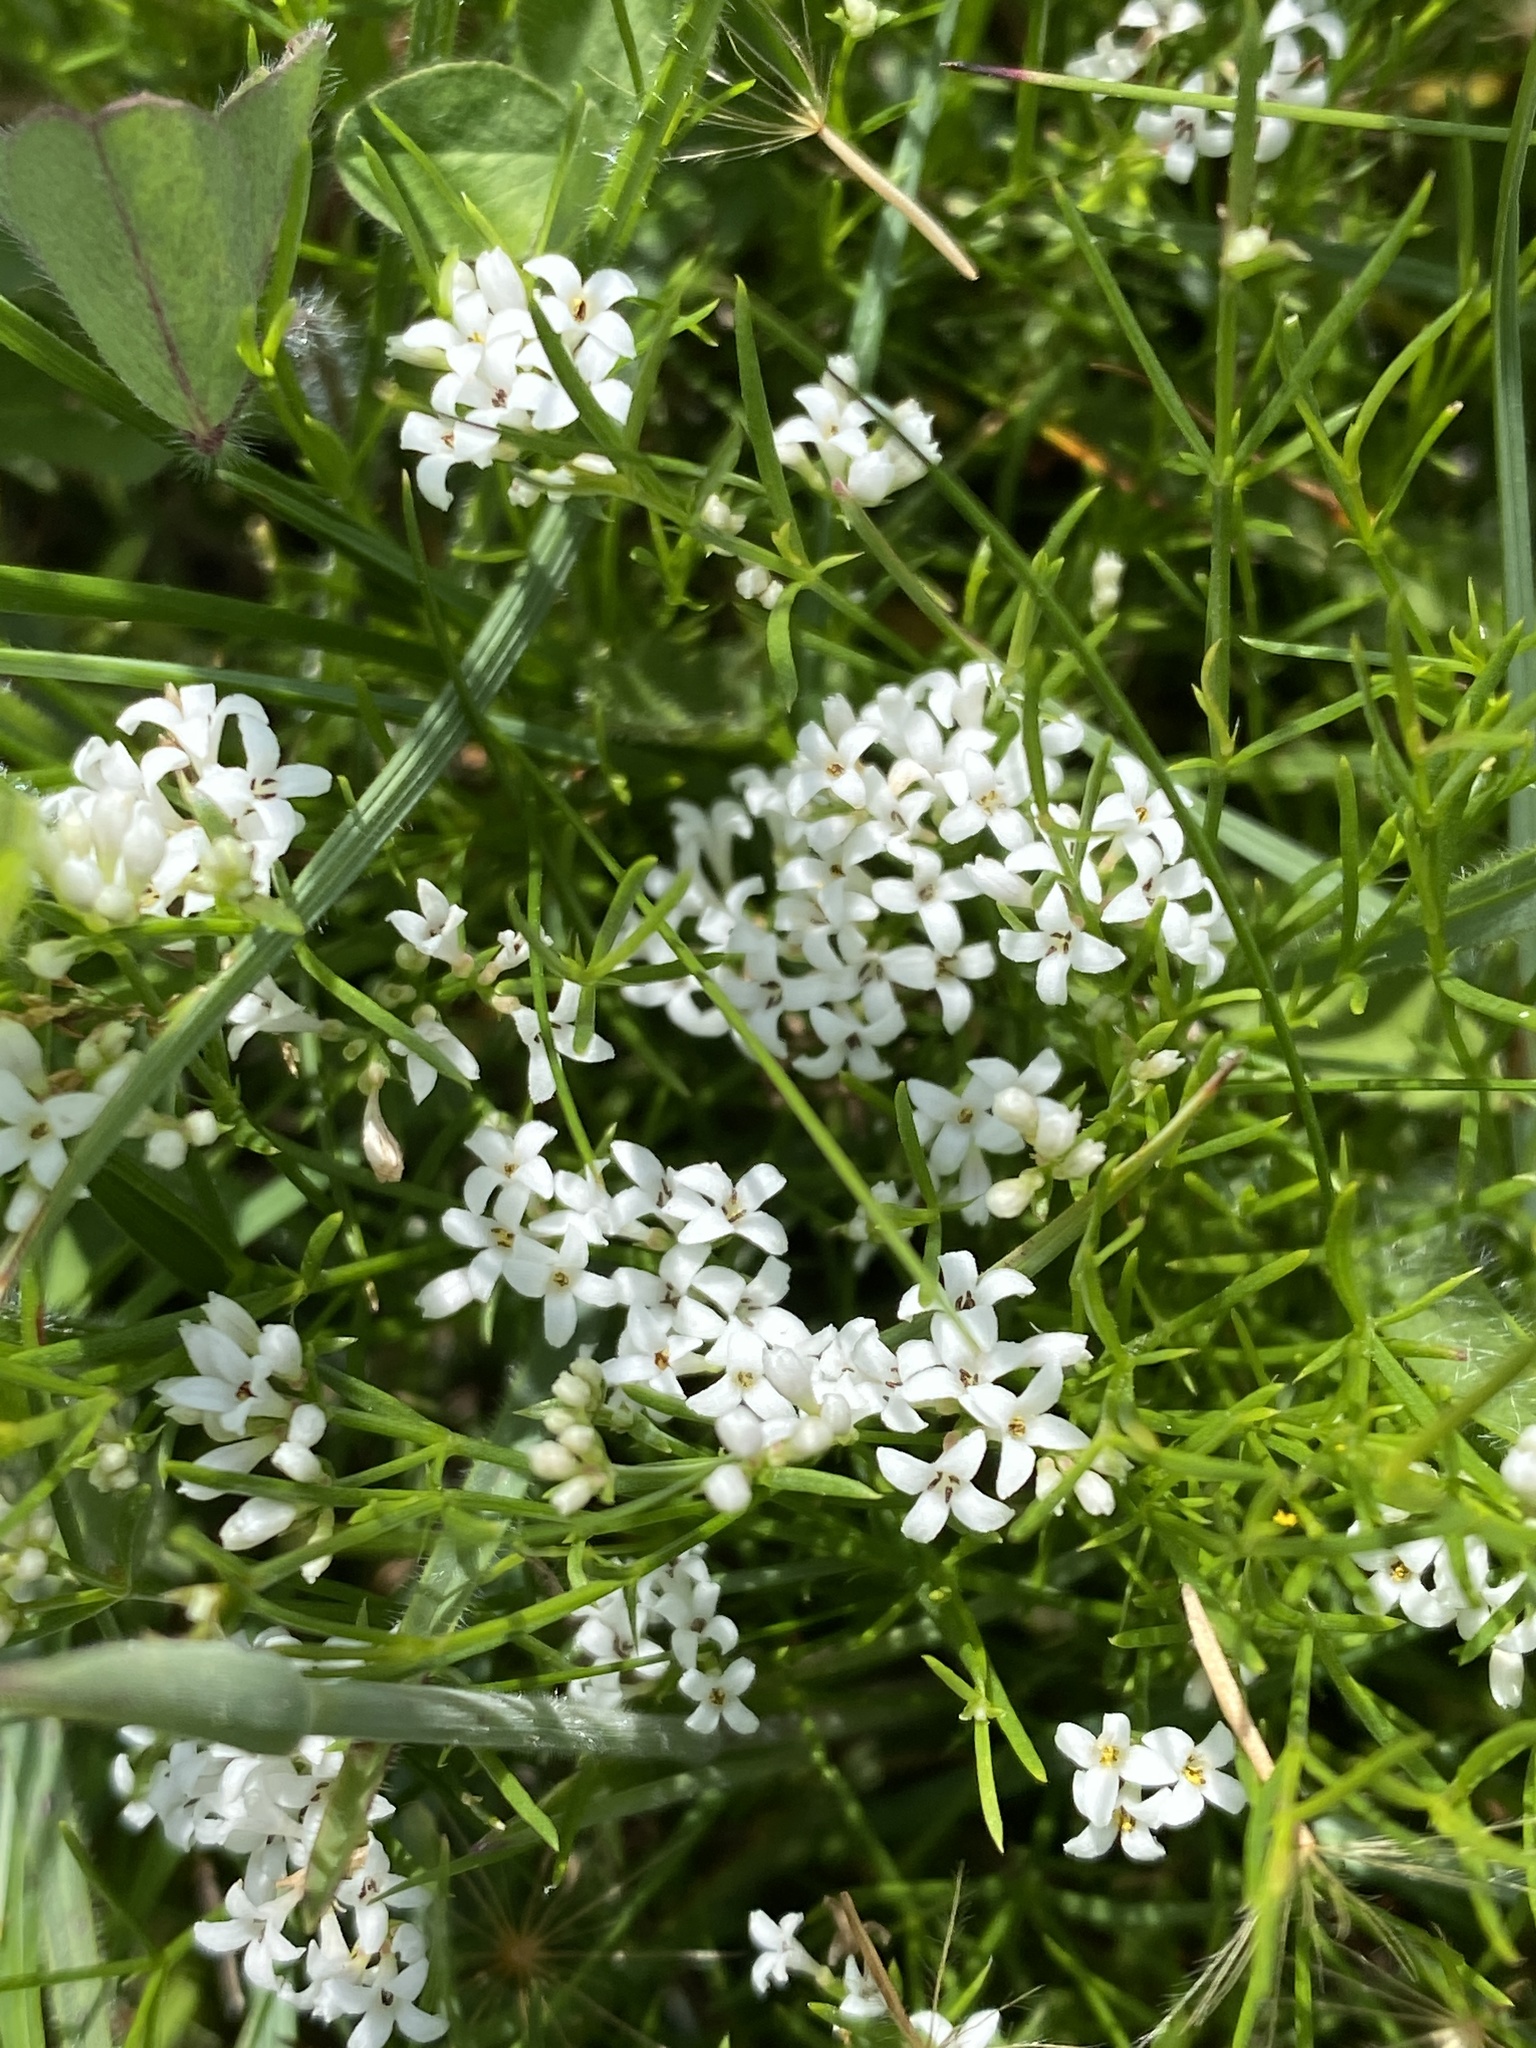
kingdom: Plantae
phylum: Tracheophyta
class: Magnoliopsida
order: Gentianales
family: Rubiaceae
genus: Cynanchica
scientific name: Cynanchica pyrenaica
